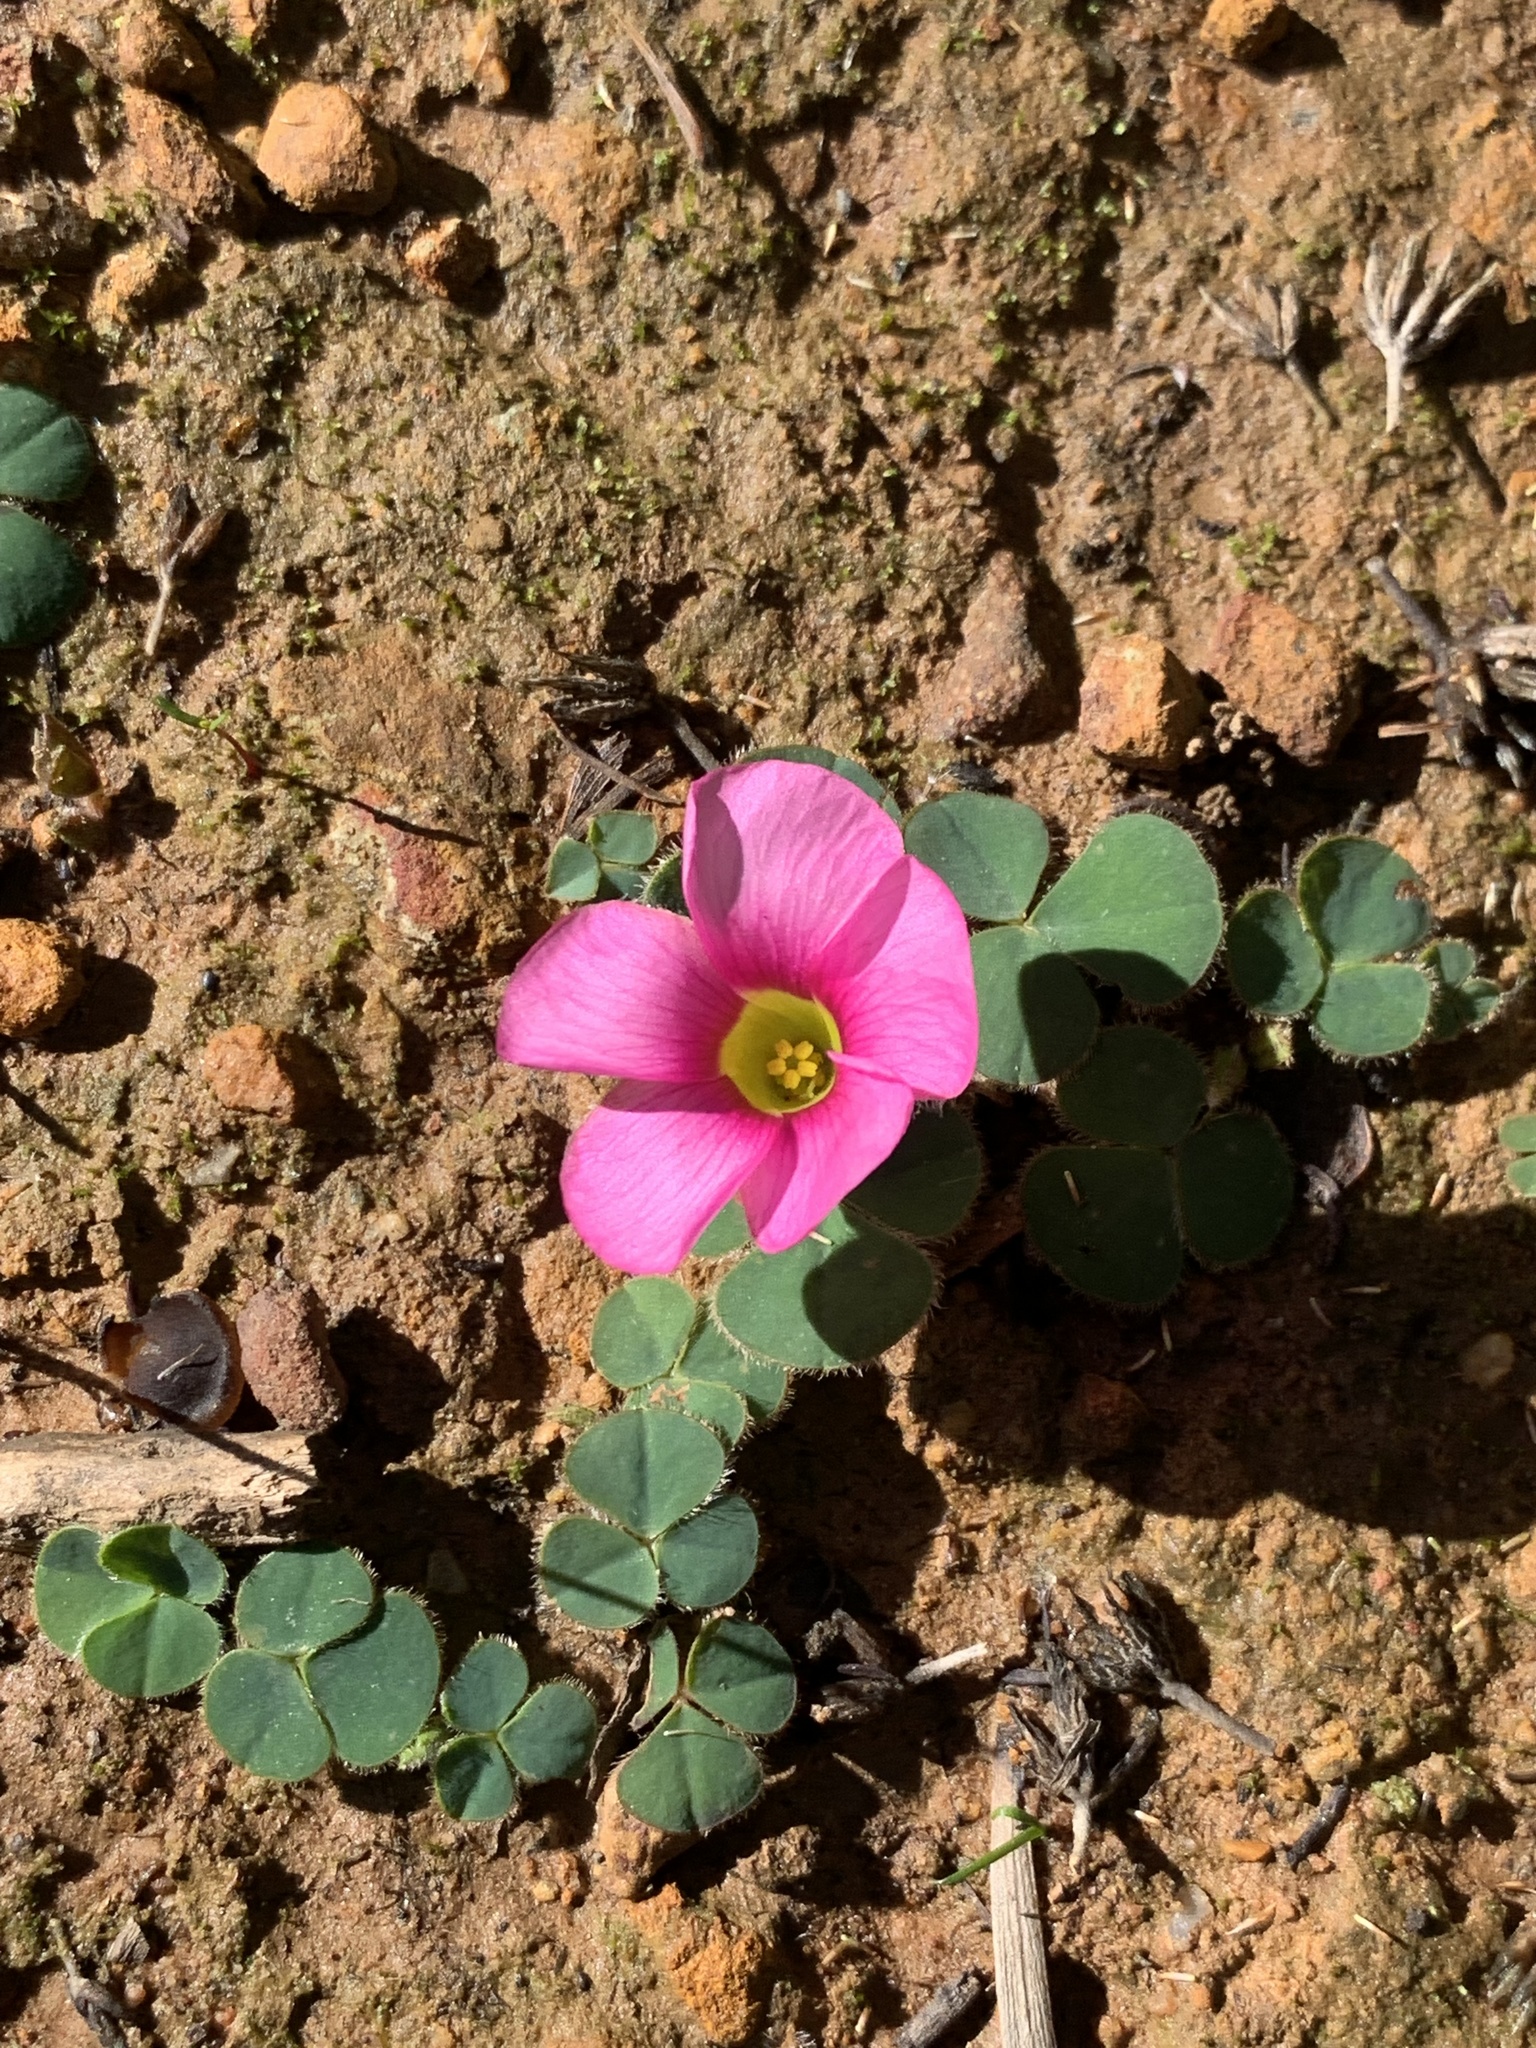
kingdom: Plantae
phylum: Tracheophyta
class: Magnoliopsida
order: Oxalidales
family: Oxalidaceae
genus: Oxalis
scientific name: Oxalis purpurea
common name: Purple woodsorrel
